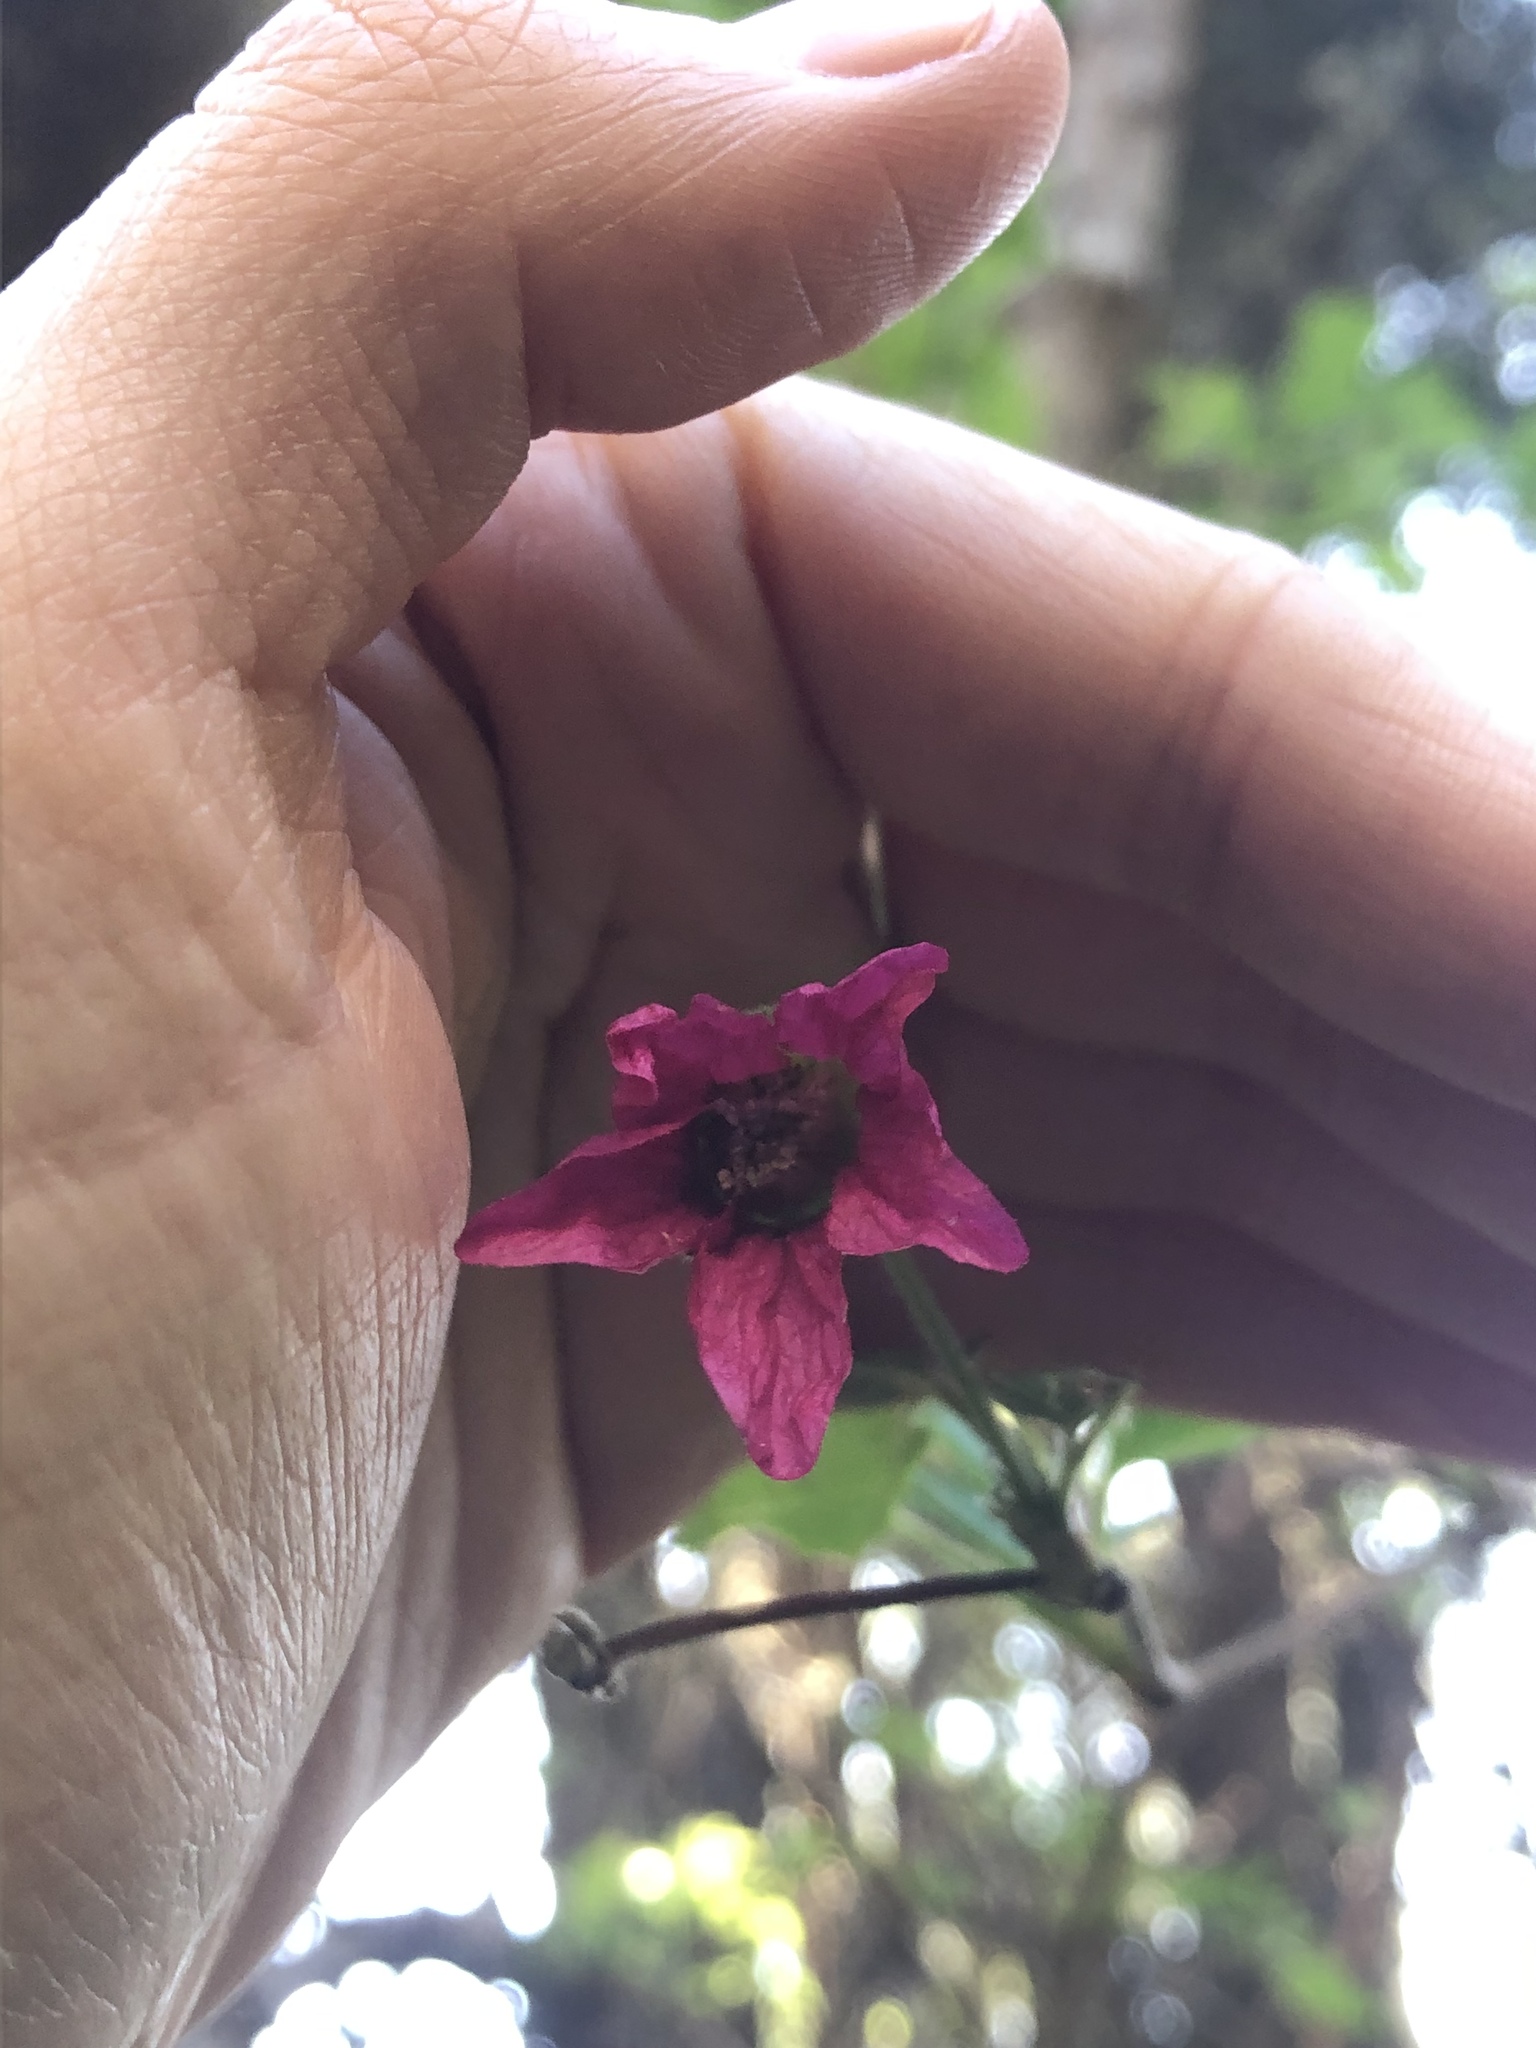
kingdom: Plantae
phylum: Tracheophyta
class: Magnoliopsida
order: Rosales
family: Rosaceae
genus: Rubus
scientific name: Rubus spectabilis
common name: Salmonberry
